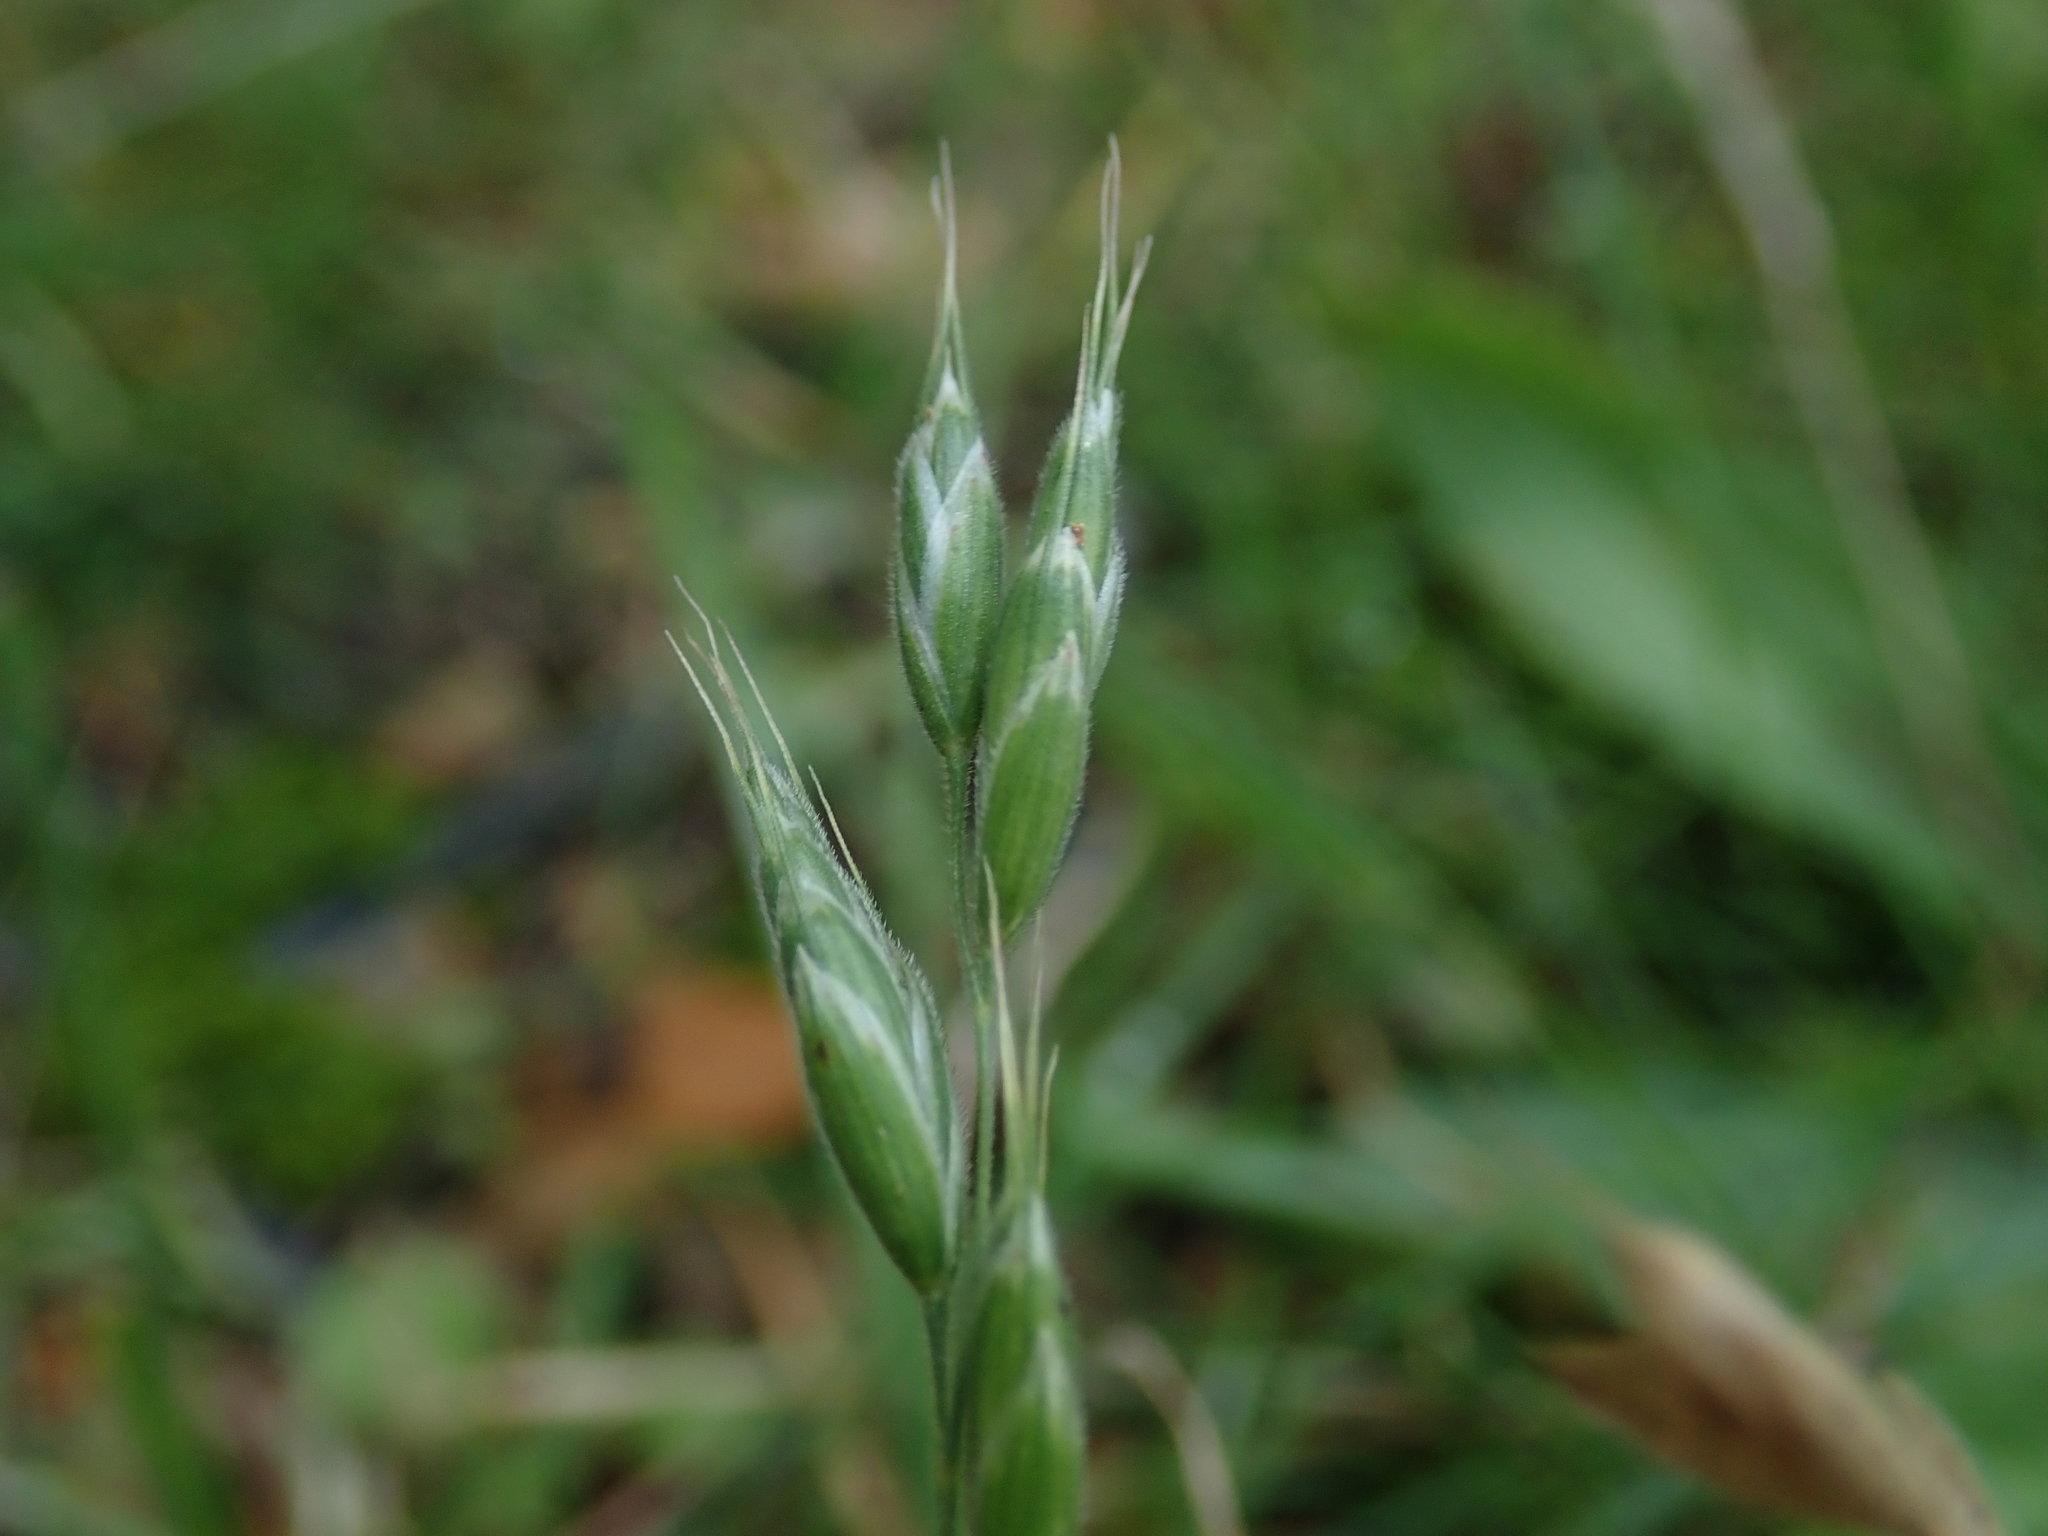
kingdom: Plantae
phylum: Tracheophyta
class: Liliopsida
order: Poales
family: Poaceae
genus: Bromus
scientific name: Bromus hordeaceus
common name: Soft brome
